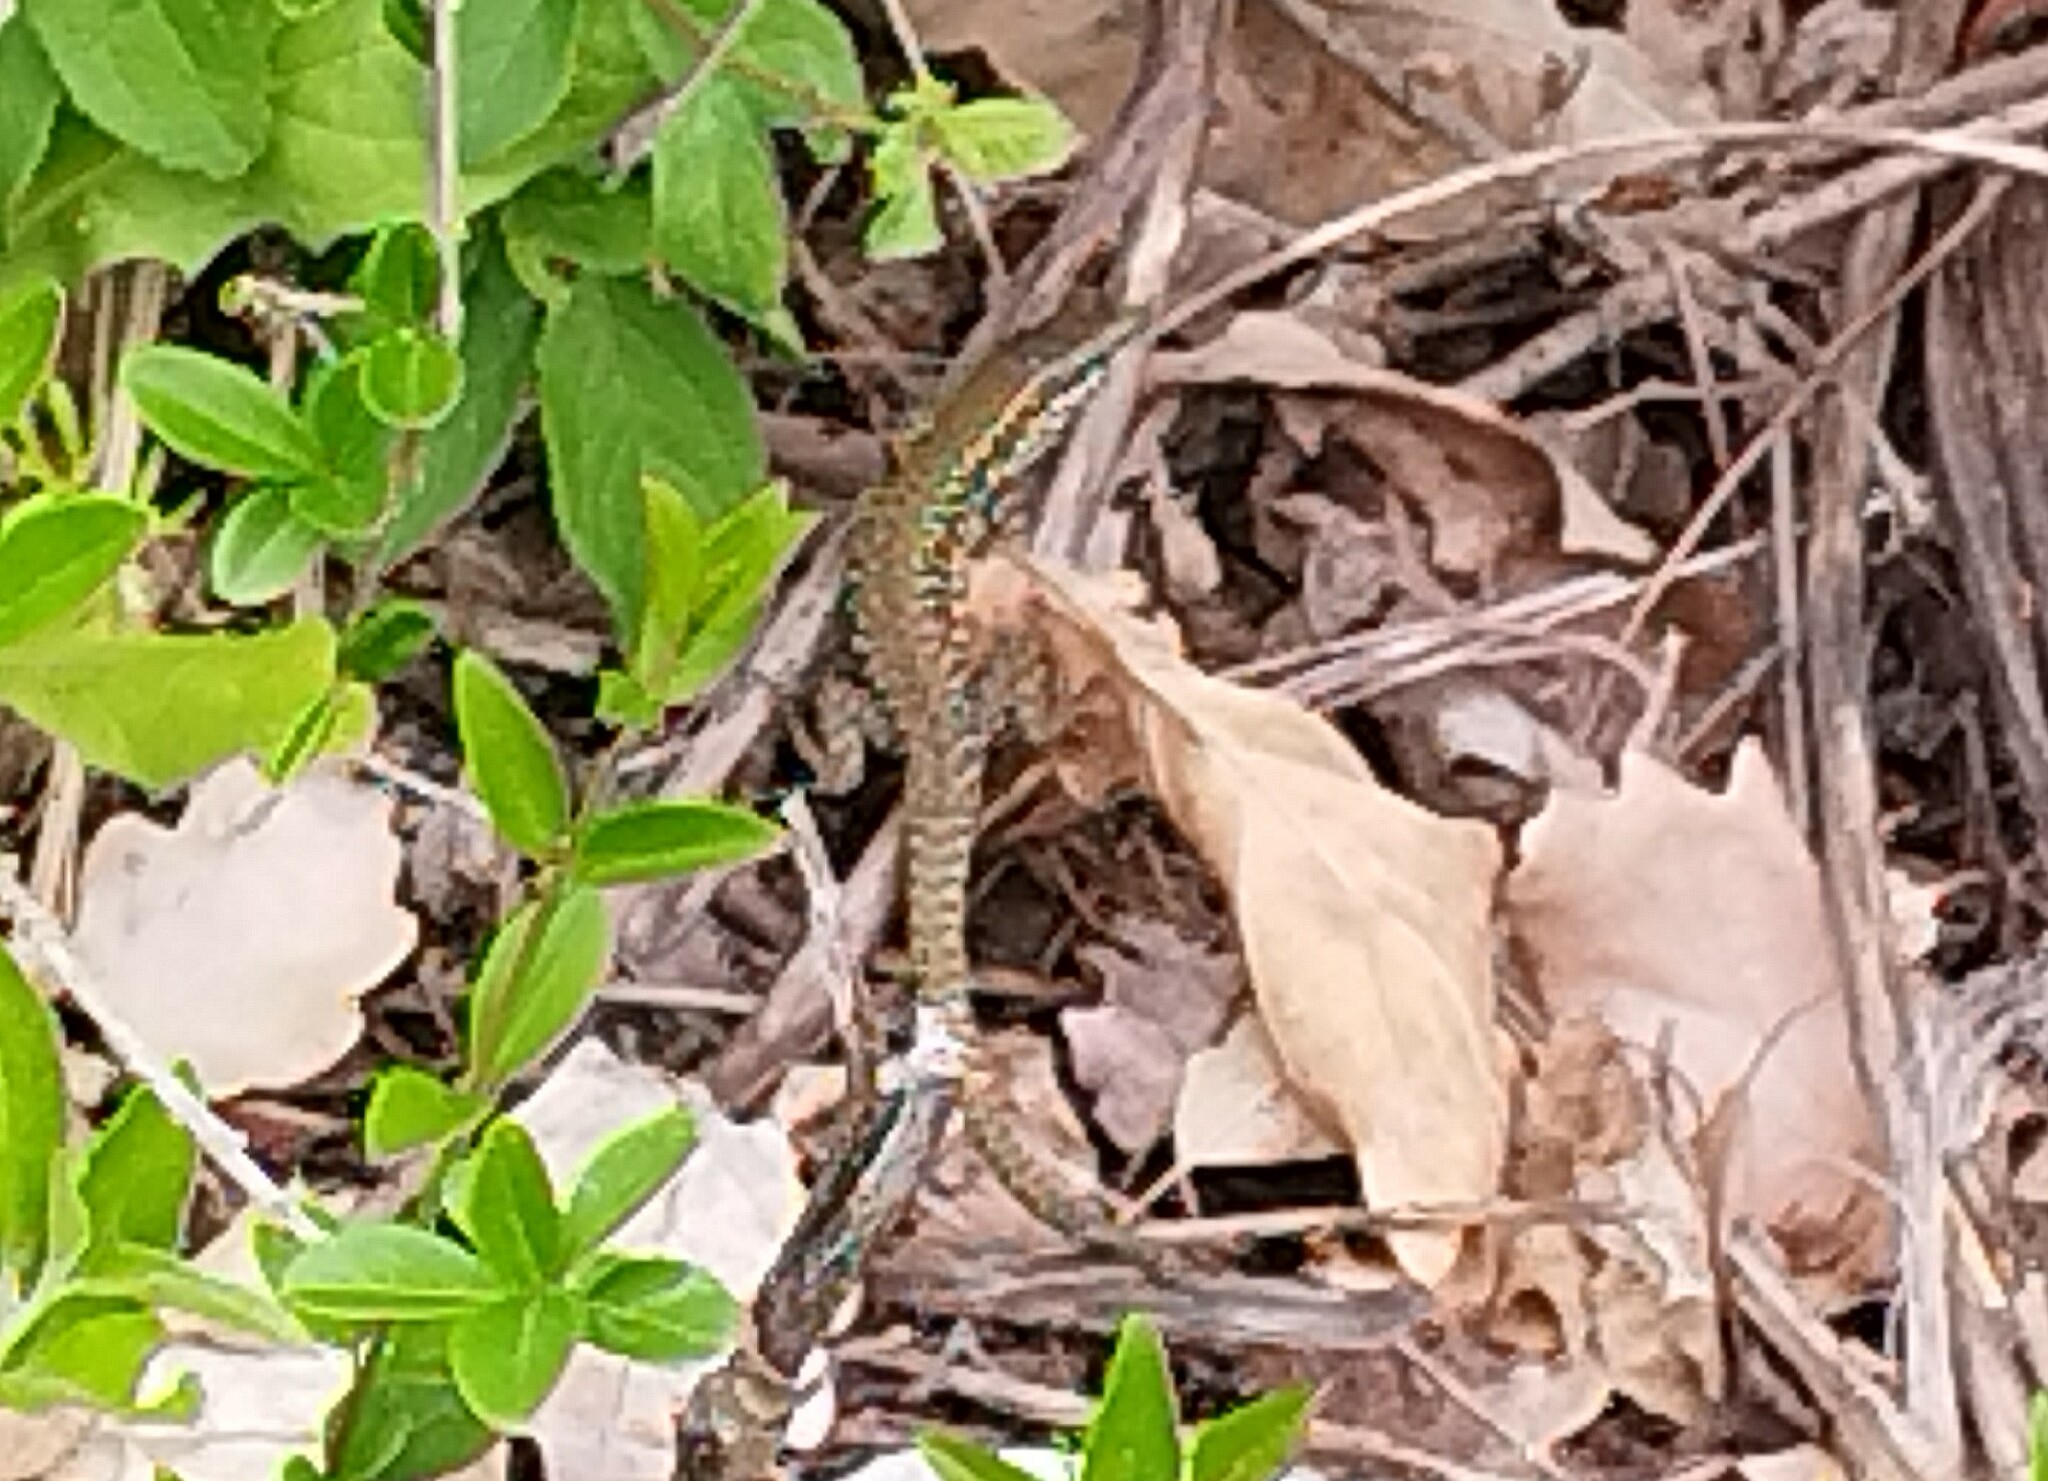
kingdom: Animalia
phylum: Chordata
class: Squamata
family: Lacertidae
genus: Podarcis
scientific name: Podarcis muralis
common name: Common wall lizard
